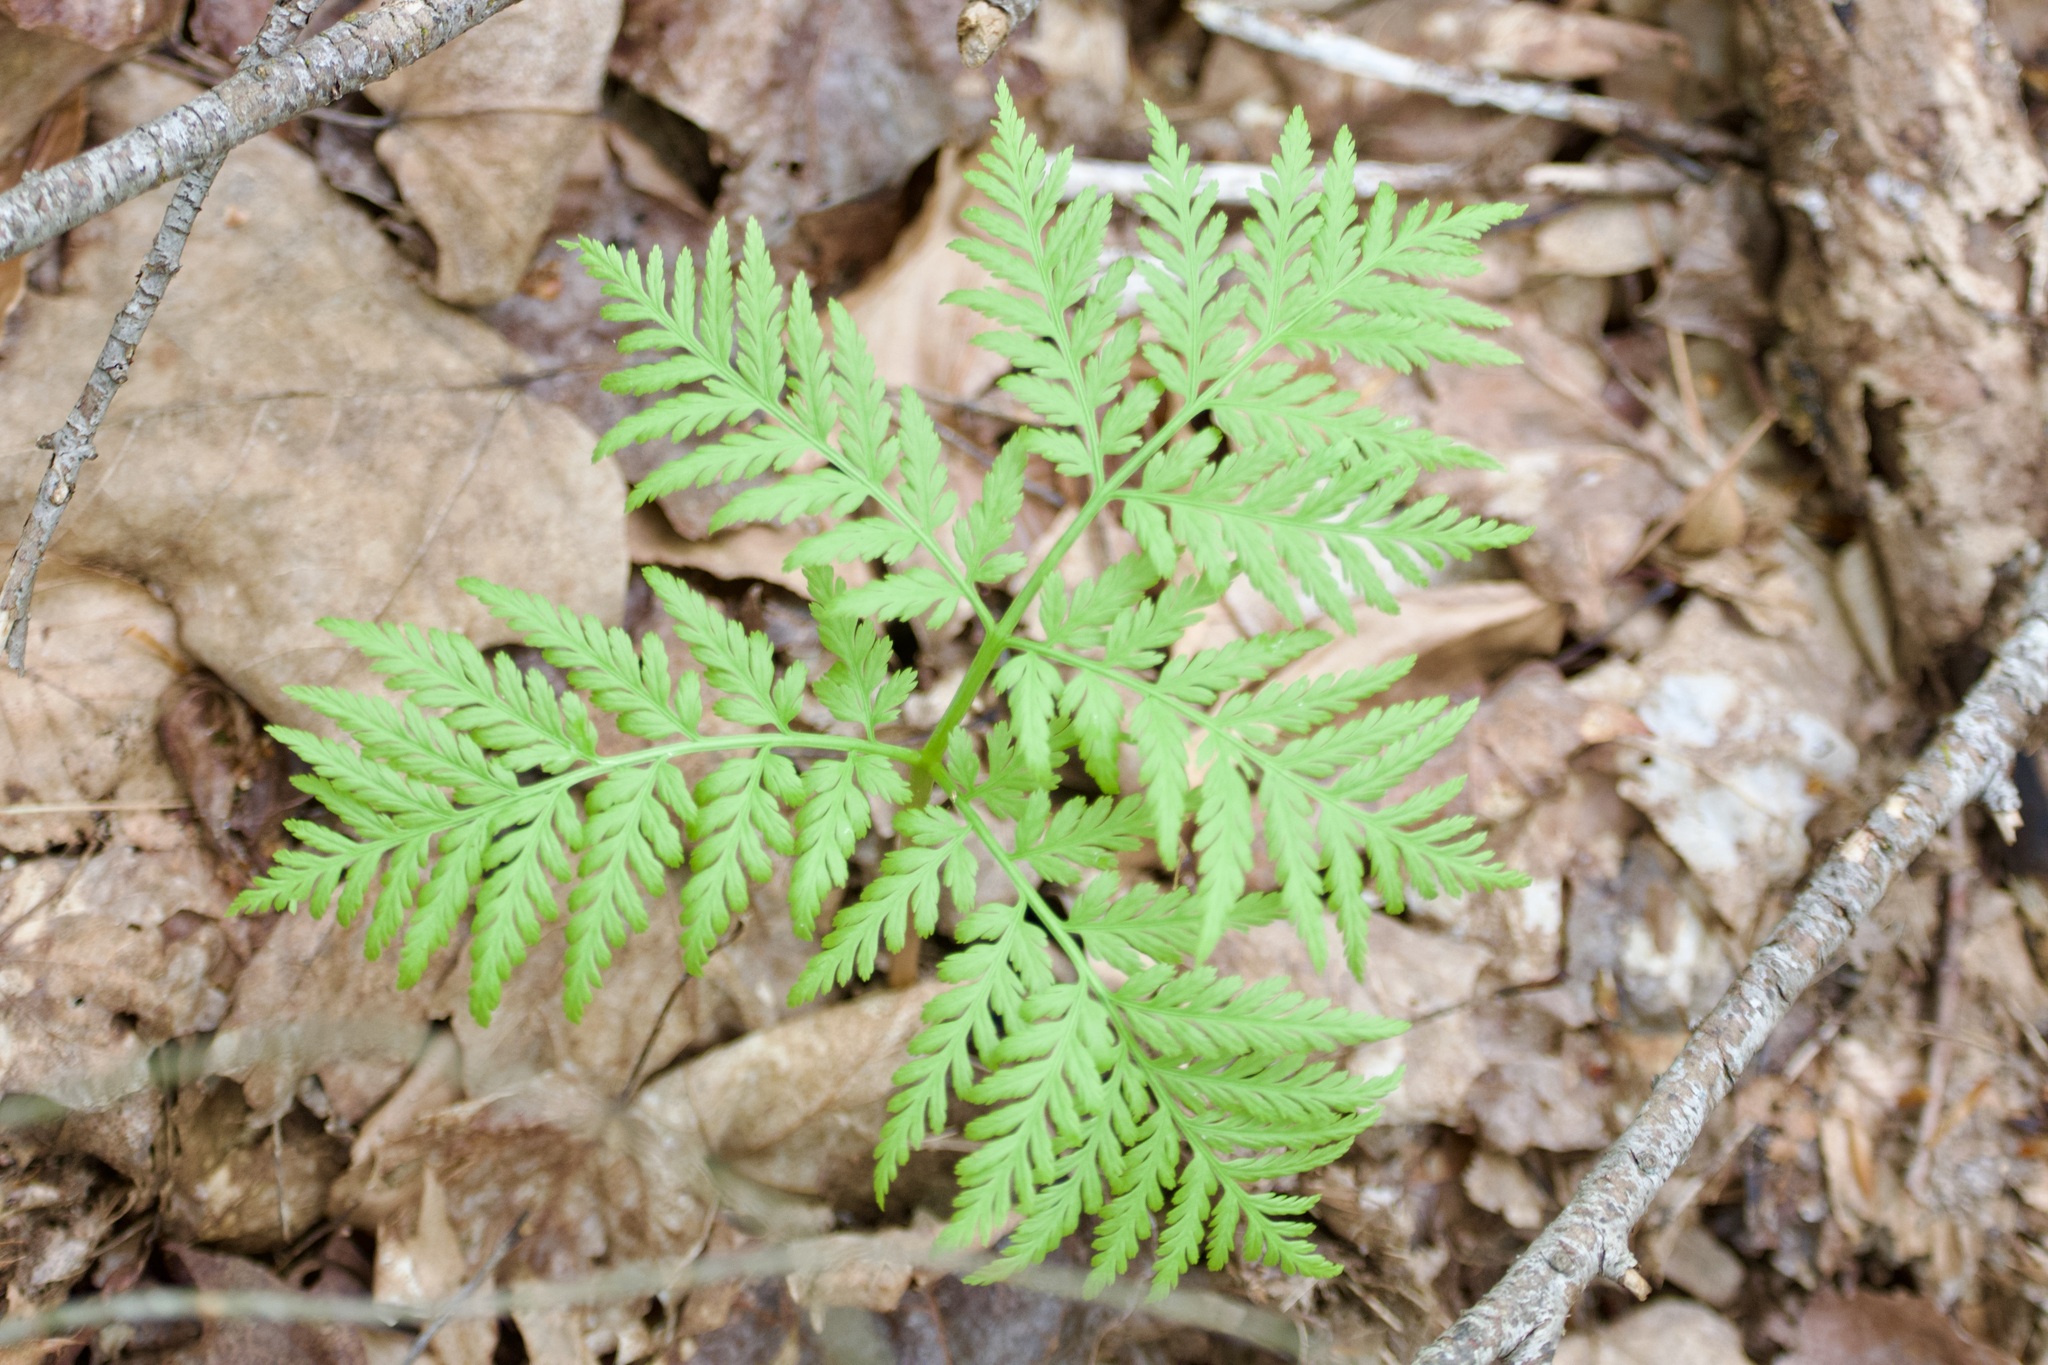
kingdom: Plantae
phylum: Tracheophyta
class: Polypodiopsida
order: Ophioglossales
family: Ophioglossaceae
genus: Botrypus
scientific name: Botrypus virginianus
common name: Common grapefern
